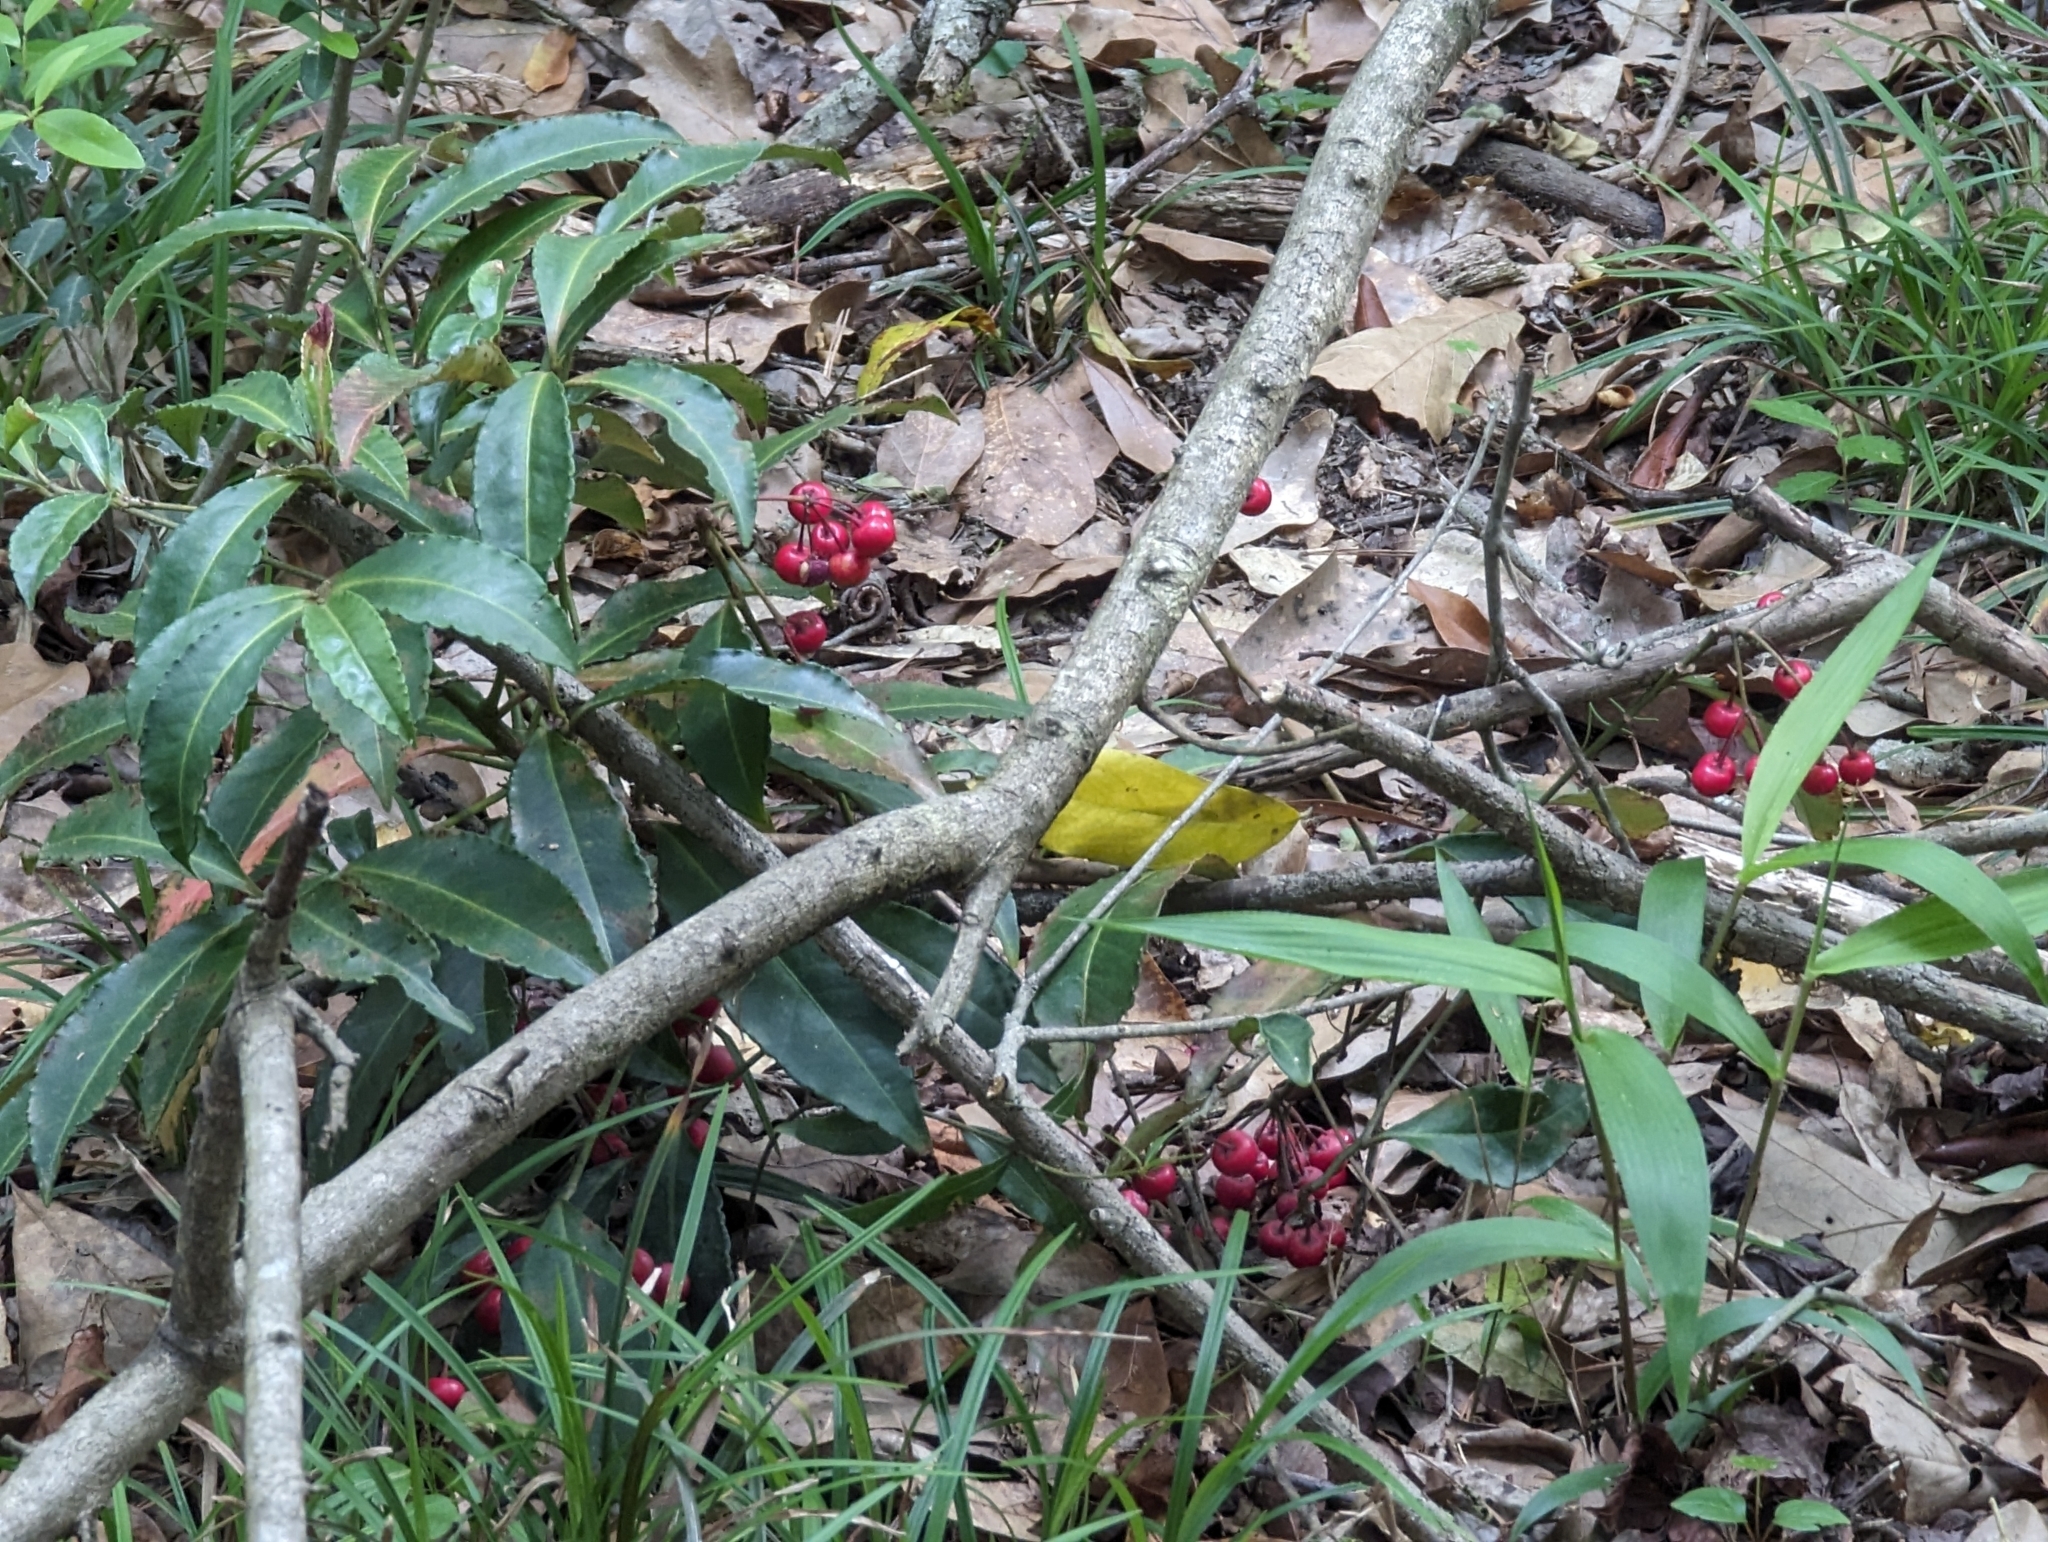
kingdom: Plantae
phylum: Tracheophyta
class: Magnoliopsida
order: Ericales
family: Primulaceae
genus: Ardisia
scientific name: Ardisia crenata
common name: Hen's eyes
